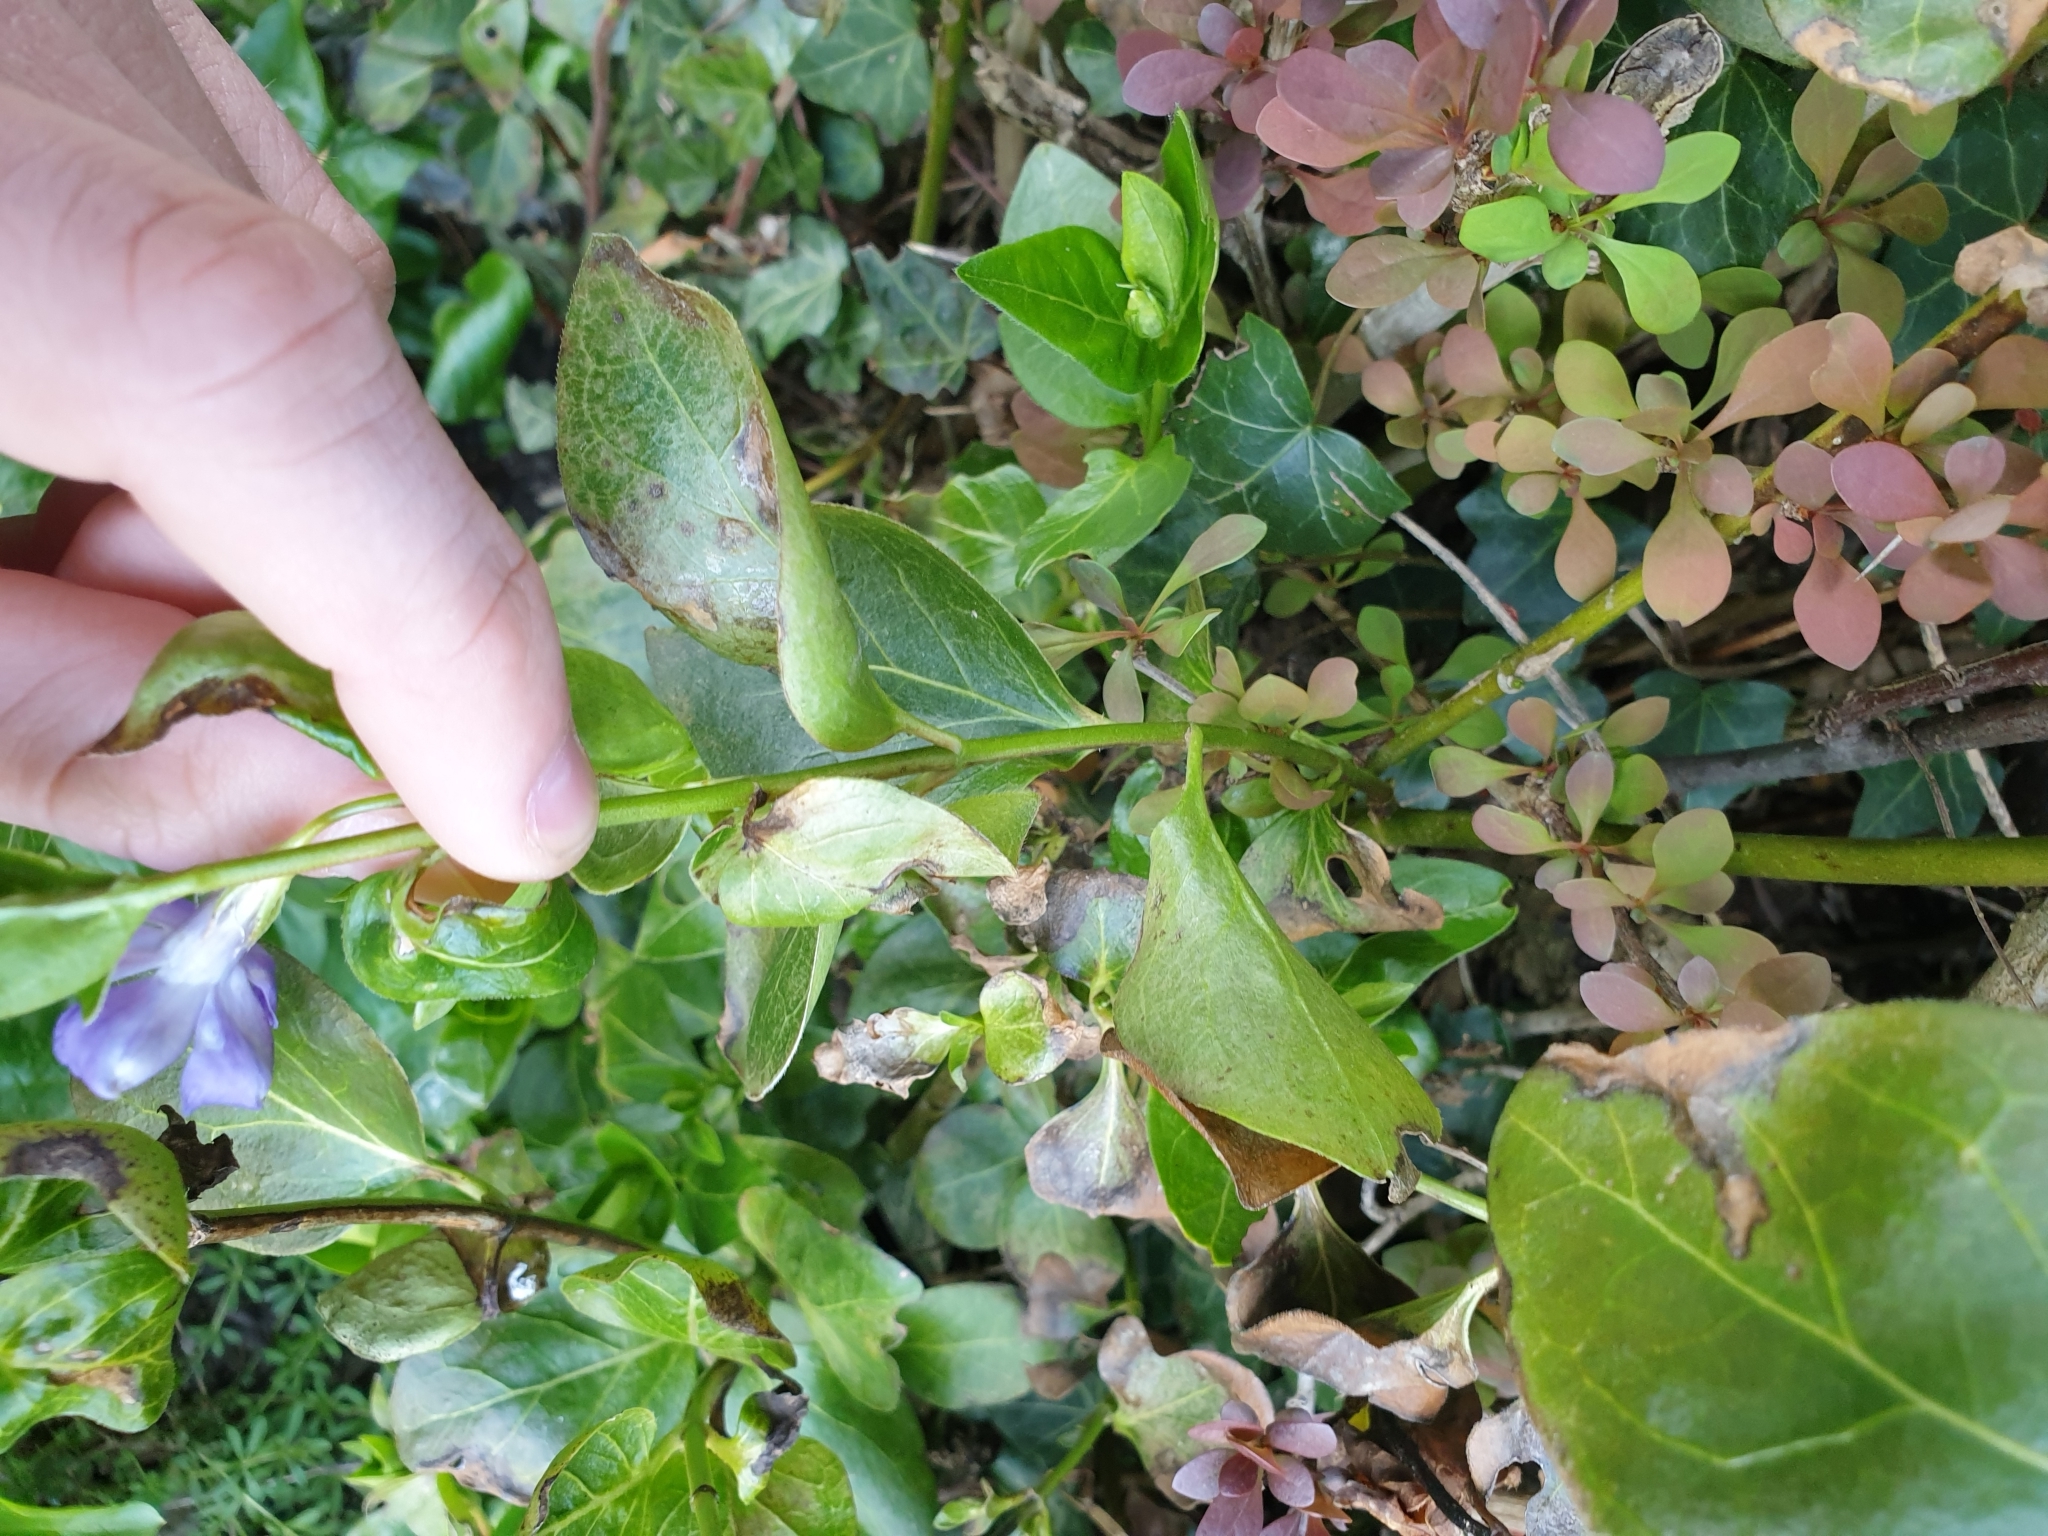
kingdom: Plantae
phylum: Tracheophyta
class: Magnoliopsida
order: Gentianales
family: Apocynaceae
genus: Vinca
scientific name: Vinca major
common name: Greater periwinkle
